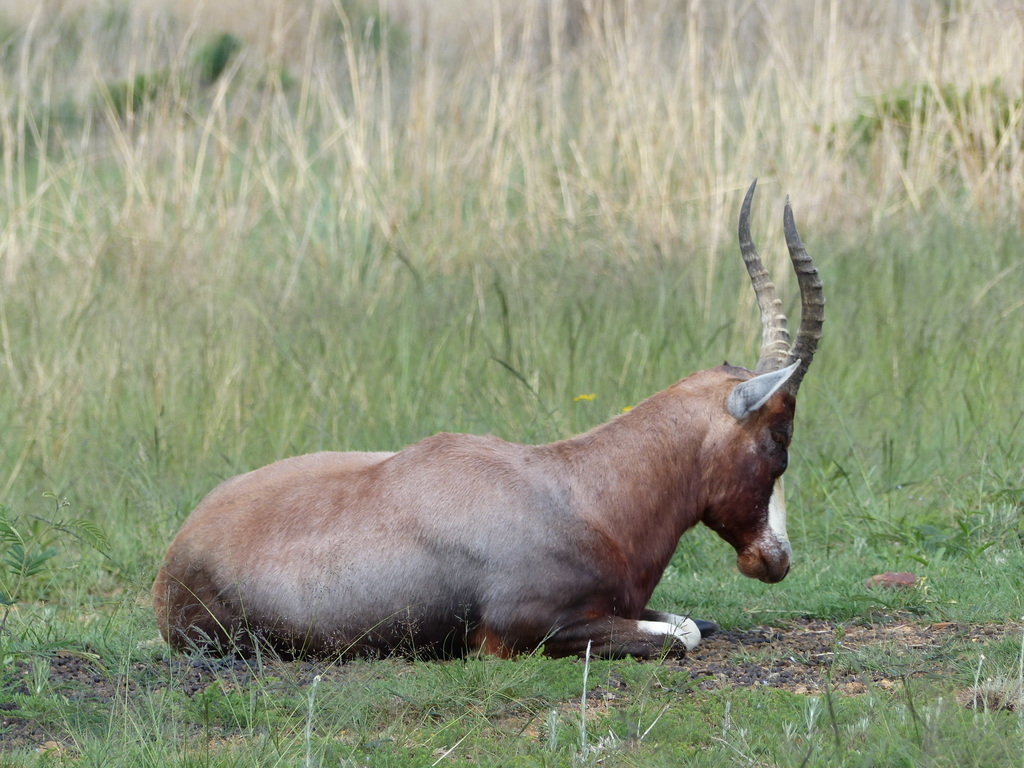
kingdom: Animalia
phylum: Chordata
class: Mammalia
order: Artiodactyla
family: Bovidae
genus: Damaliscus
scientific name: Damaliscus pygargus
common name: Bontebok
